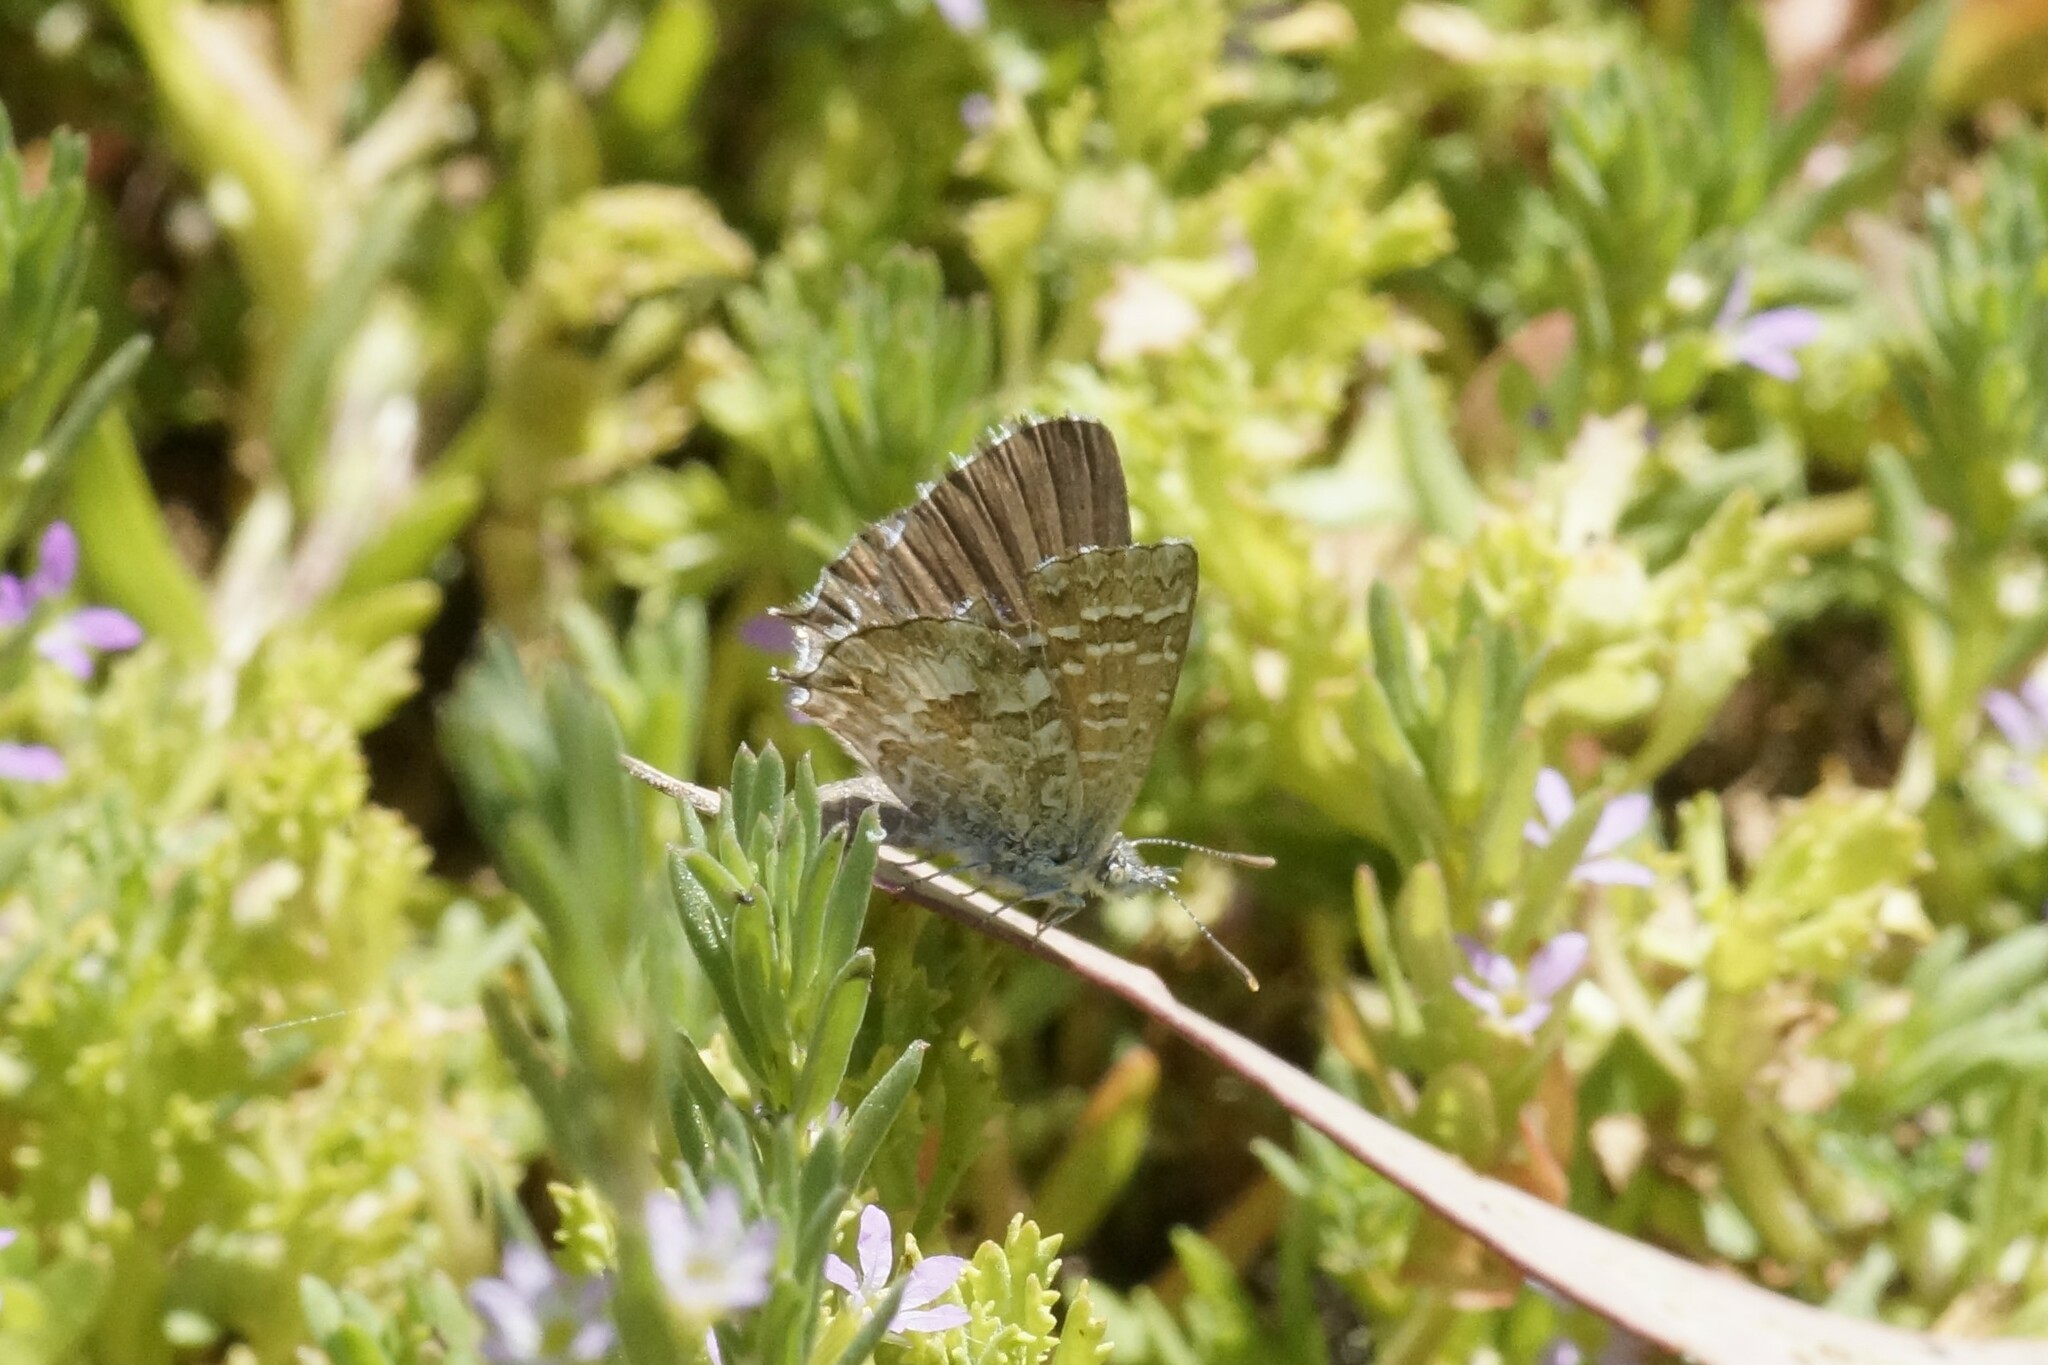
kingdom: Animalia
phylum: Arthropoda
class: Insecta
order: Lepidoptera
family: Lycaenidae
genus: Theclinesthes
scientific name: Theclinesthes serpentata
